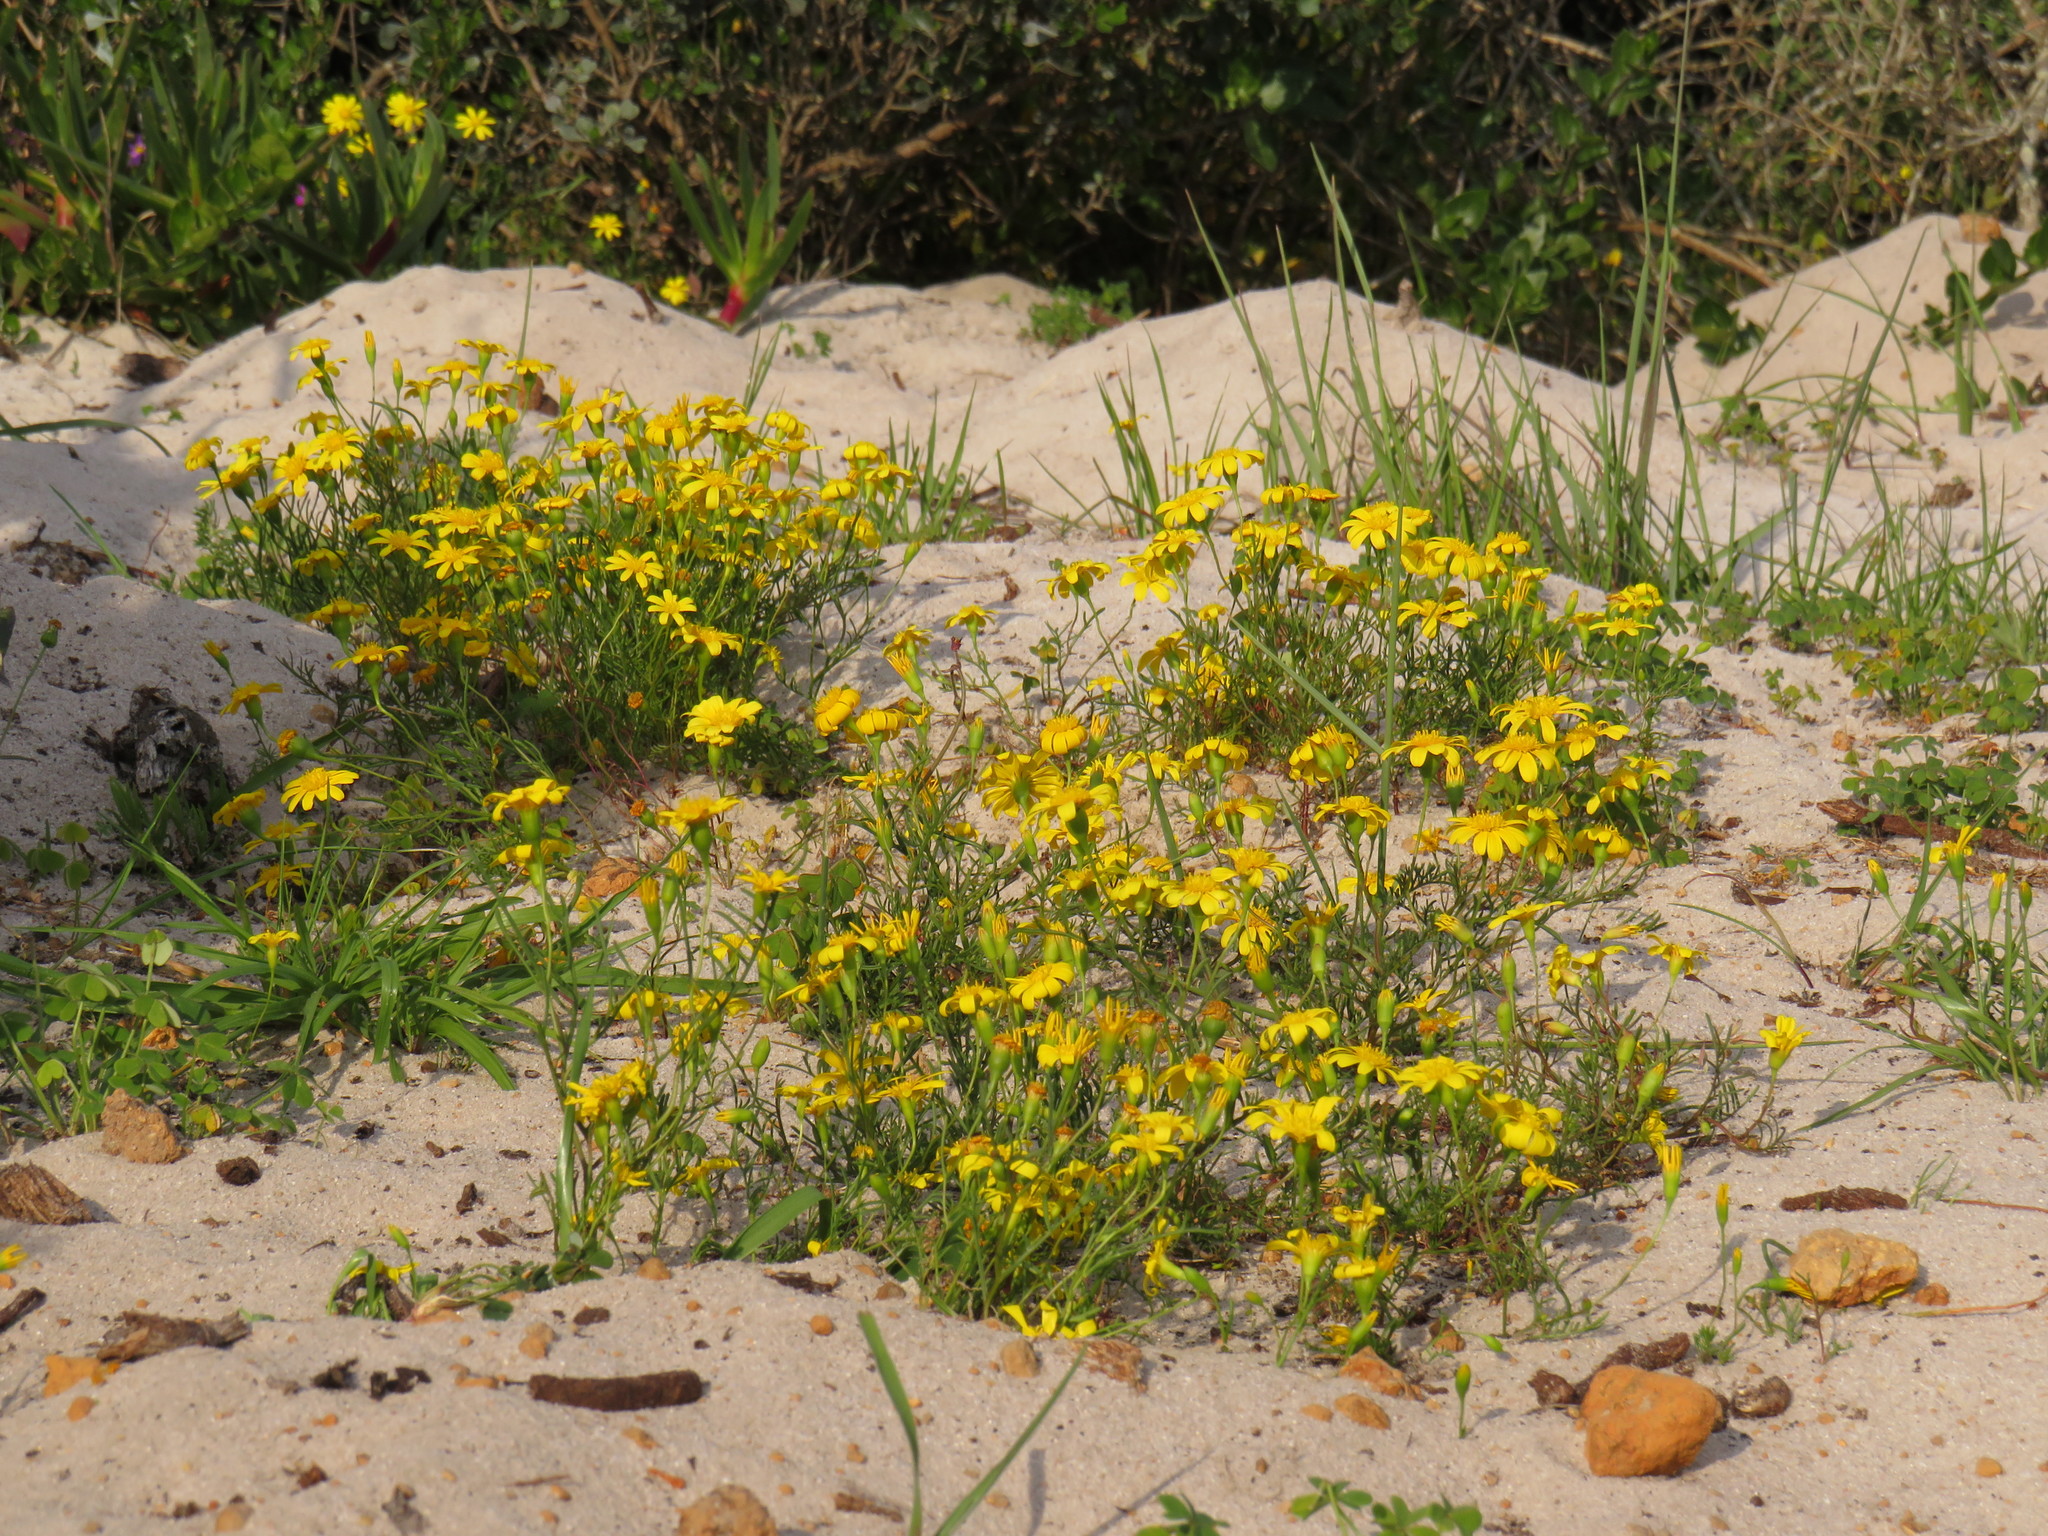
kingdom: Plantae
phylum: Tracheophyta
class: Magnoliopsida
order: Asterales
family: Asteraceae
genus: Steirodiscus
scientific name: Steirodiscus tagetes
